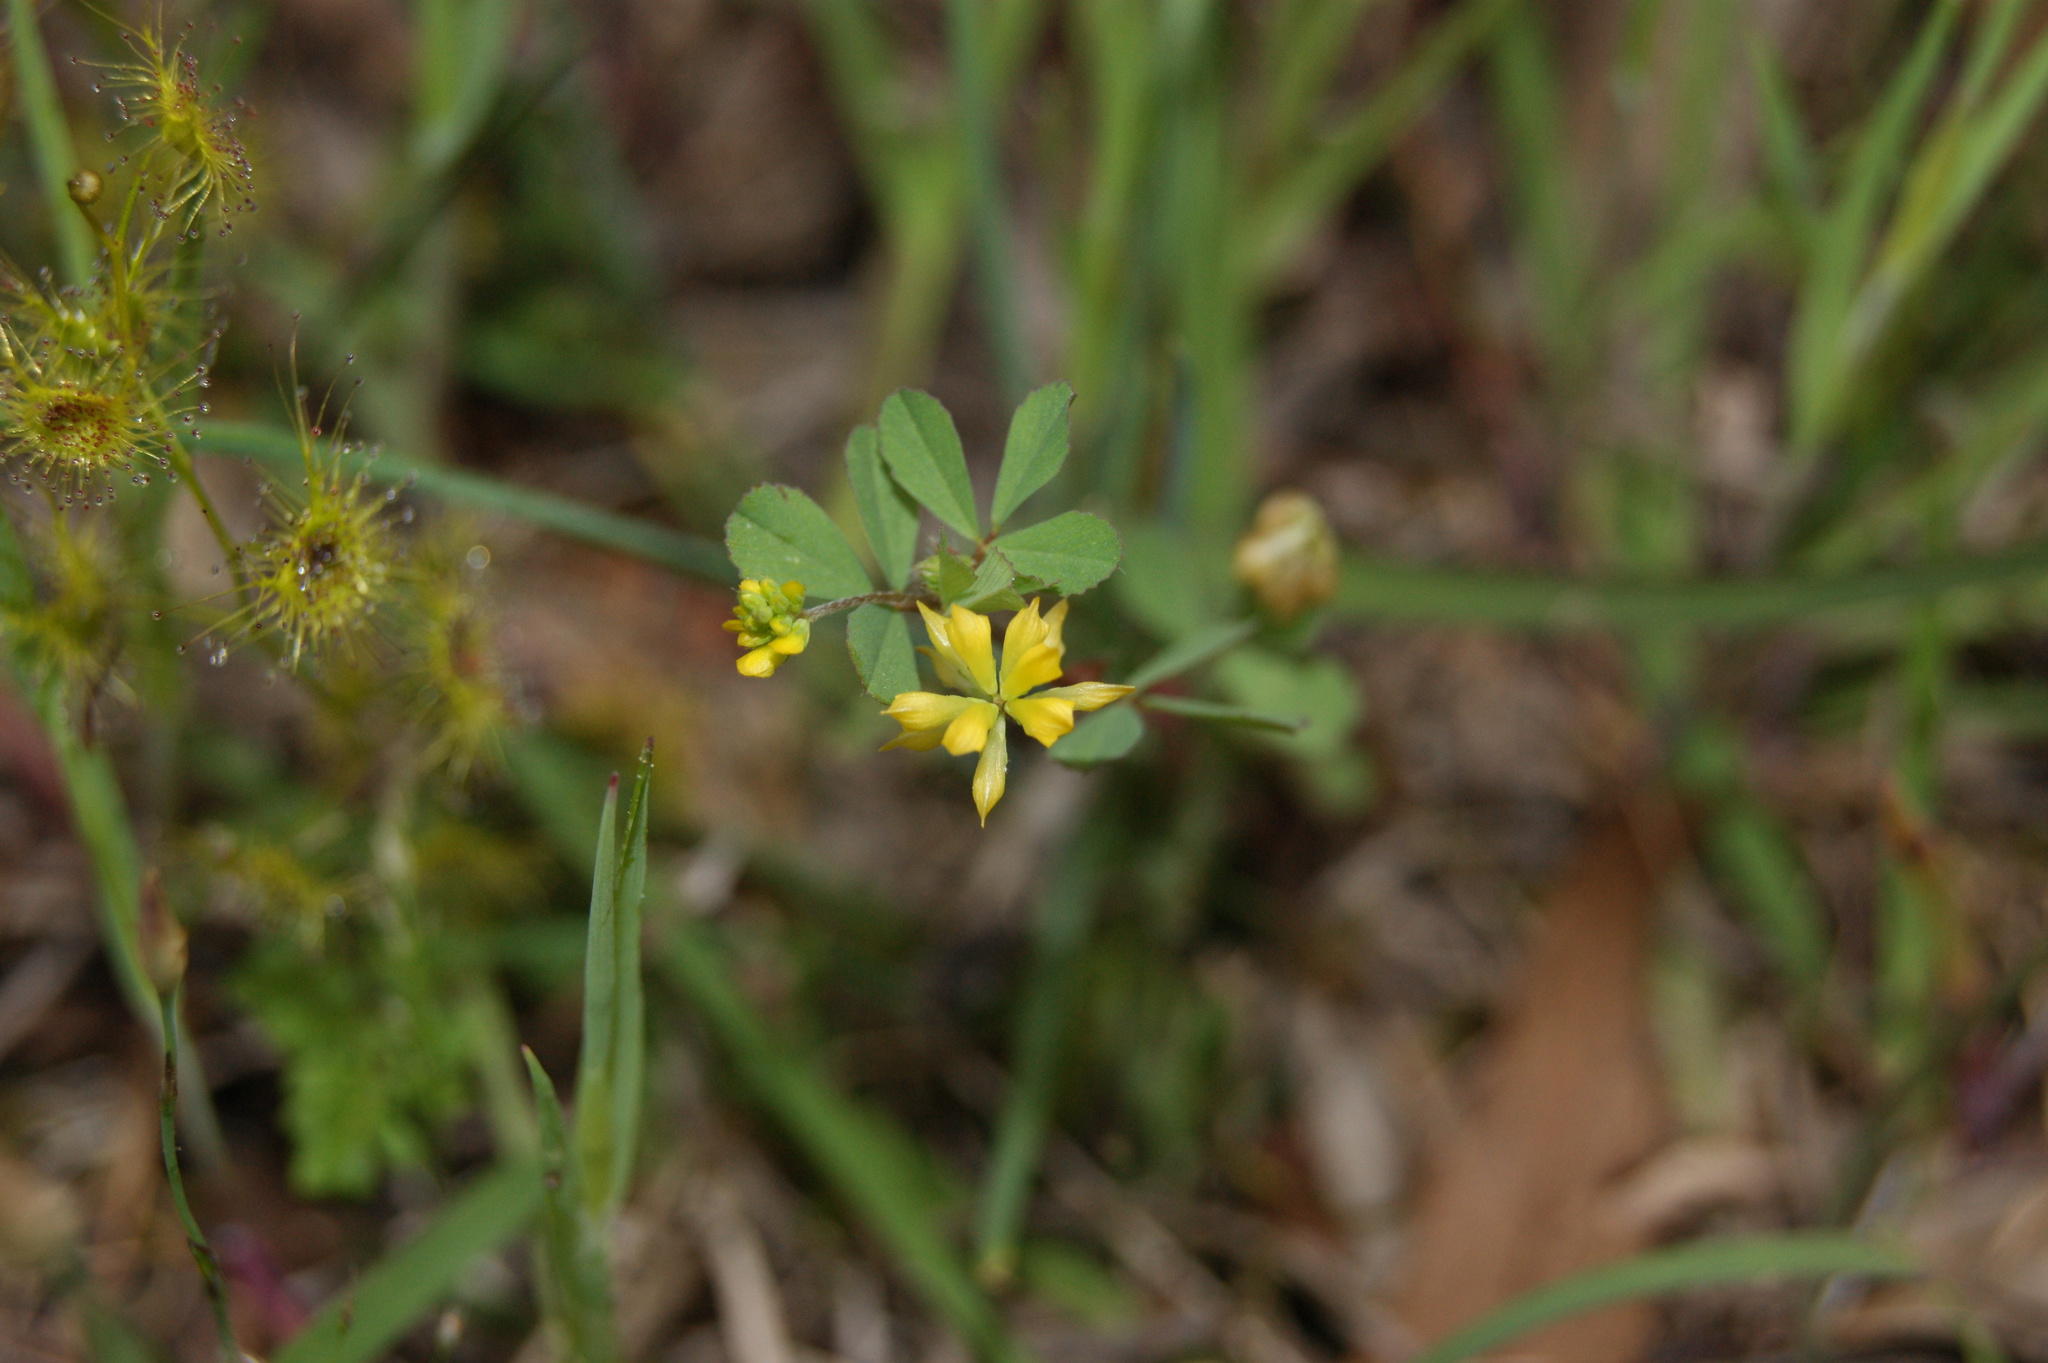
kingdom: Plantae
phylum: Tracheophyta
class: Magnoliopsida
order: Fabales
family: Fabaceae
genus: Trifolium
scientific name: Trifolium dubium
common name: Suckling clover
